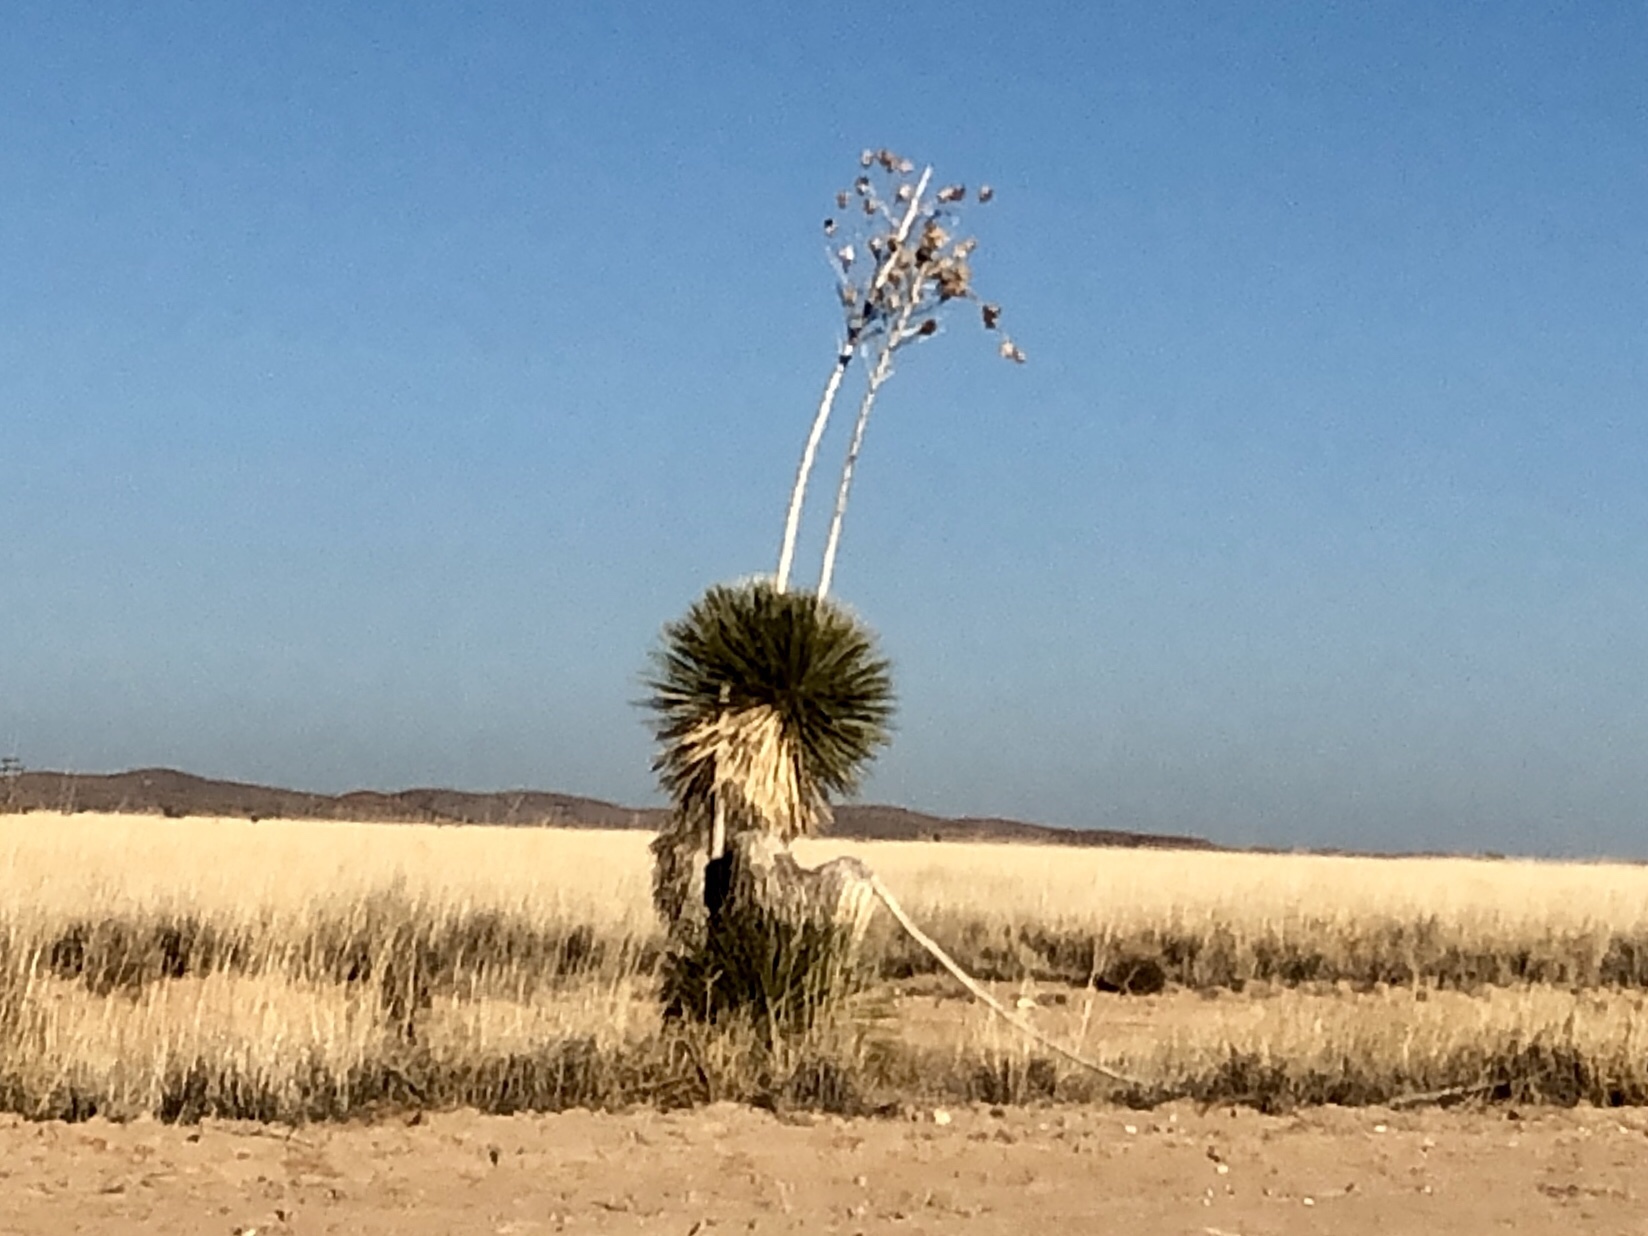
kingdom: Plantae
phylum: Tracheophyta
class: Liliopsida
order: Asparagales
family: Asparagaceae
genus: Yucca
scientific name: Yucca elata
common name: Palmella
